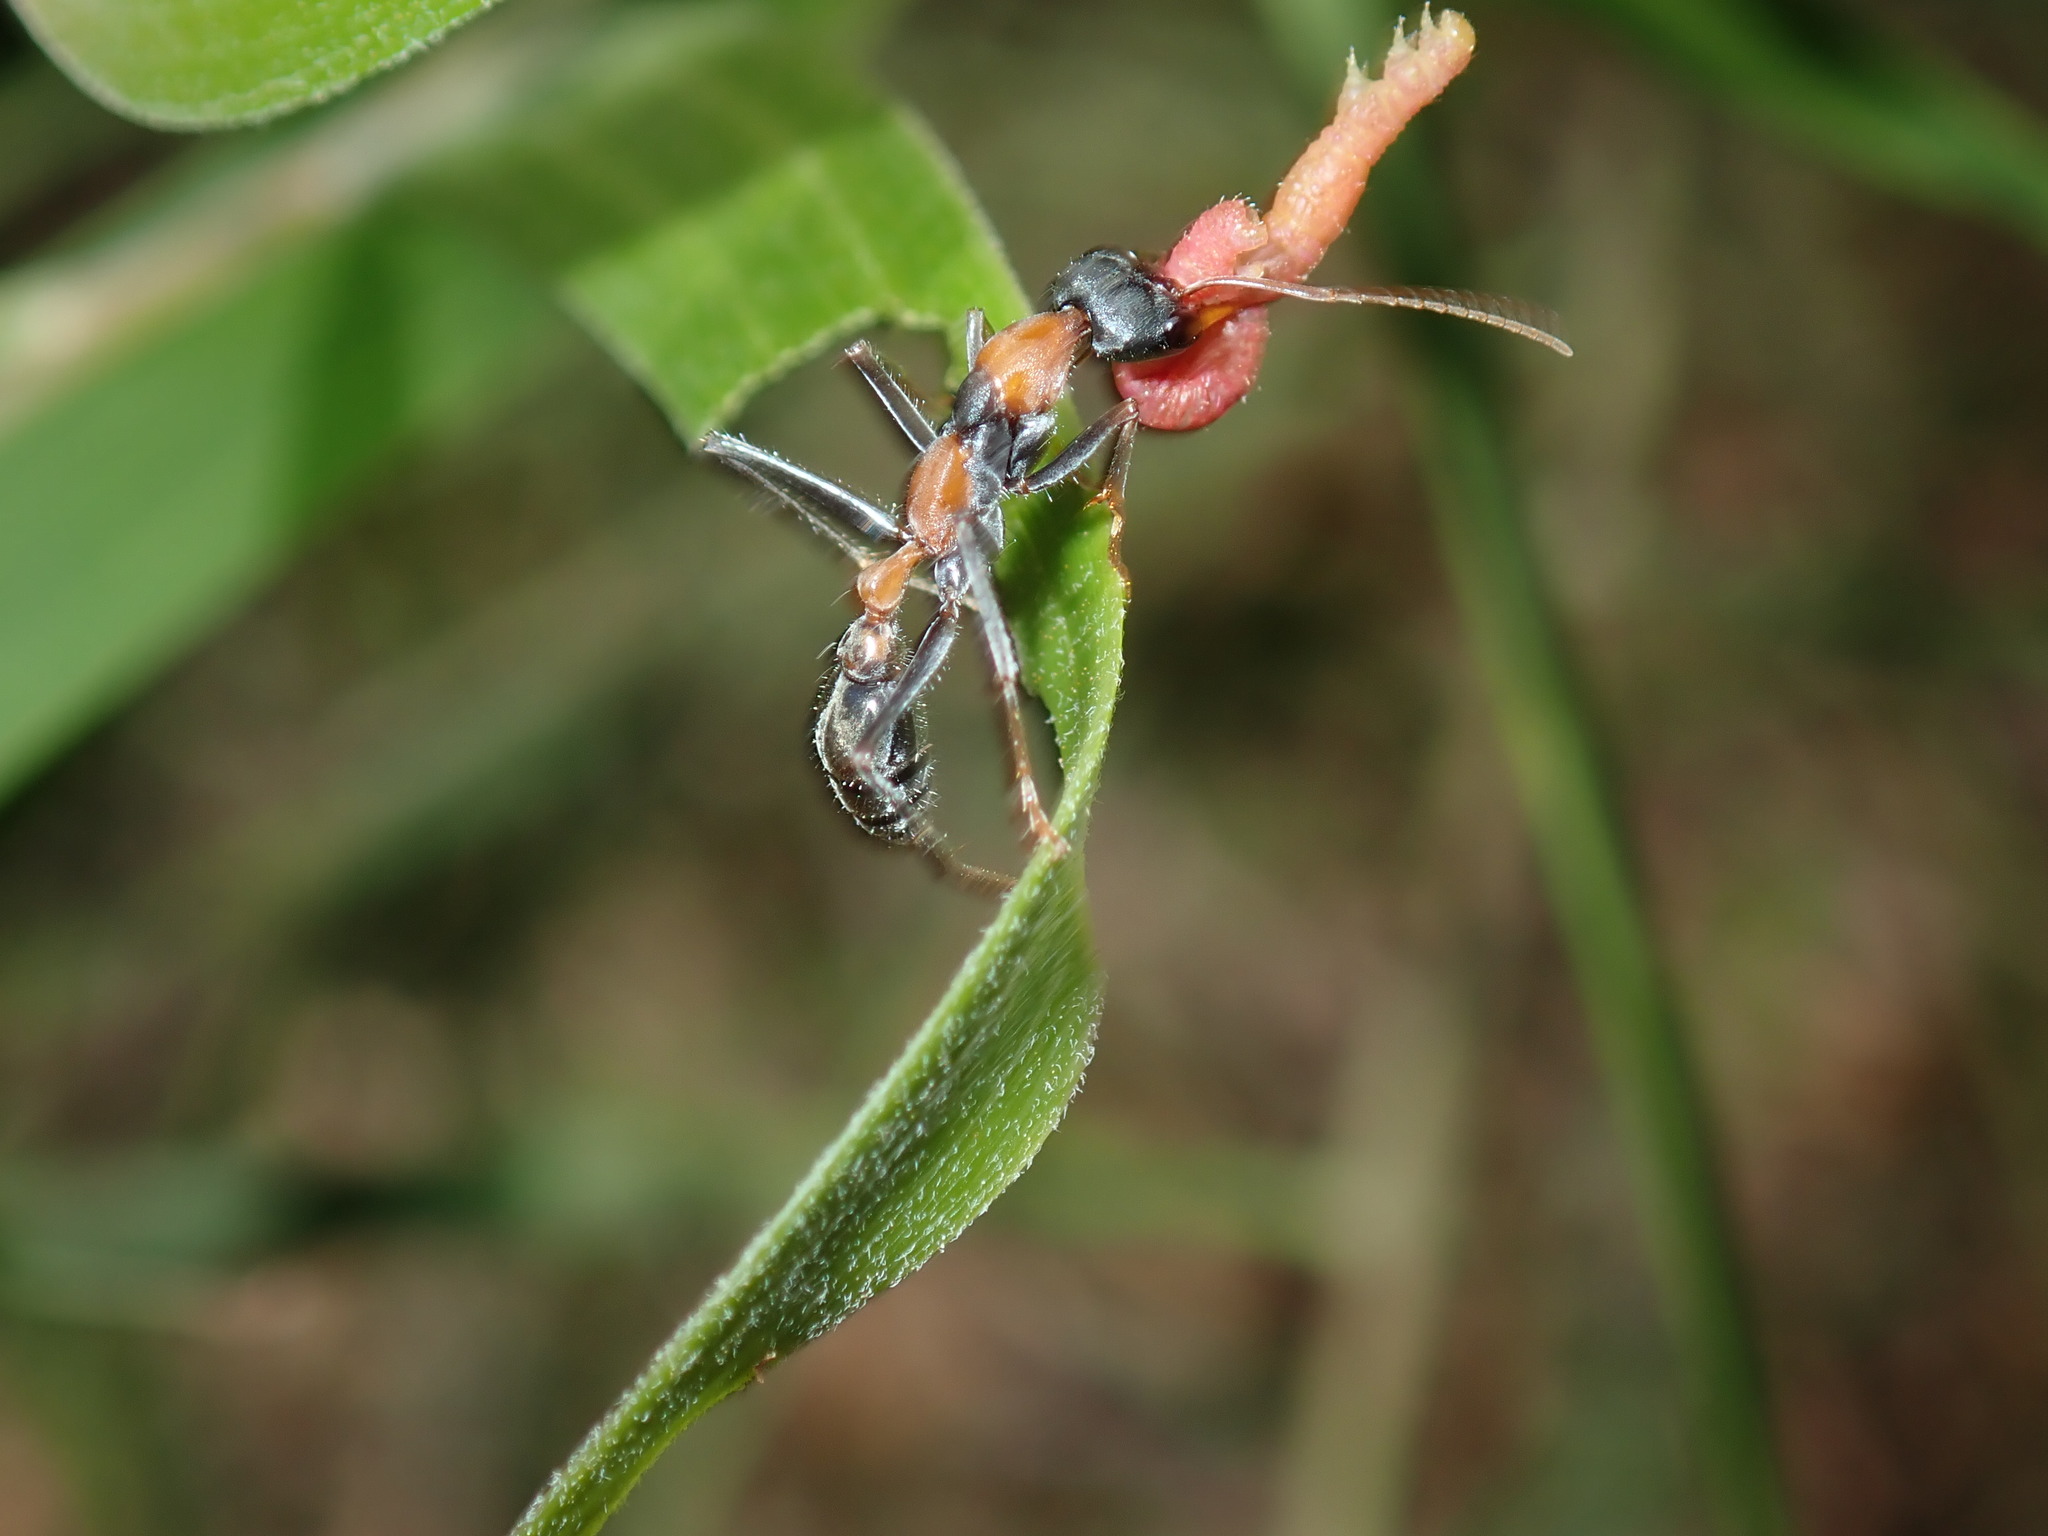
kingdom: Animalia
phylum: Arthropoda
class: Insecta
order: Hymenoptera
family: Formicidae
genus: Myrmecia
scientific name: Myrmecia nigrocincta
